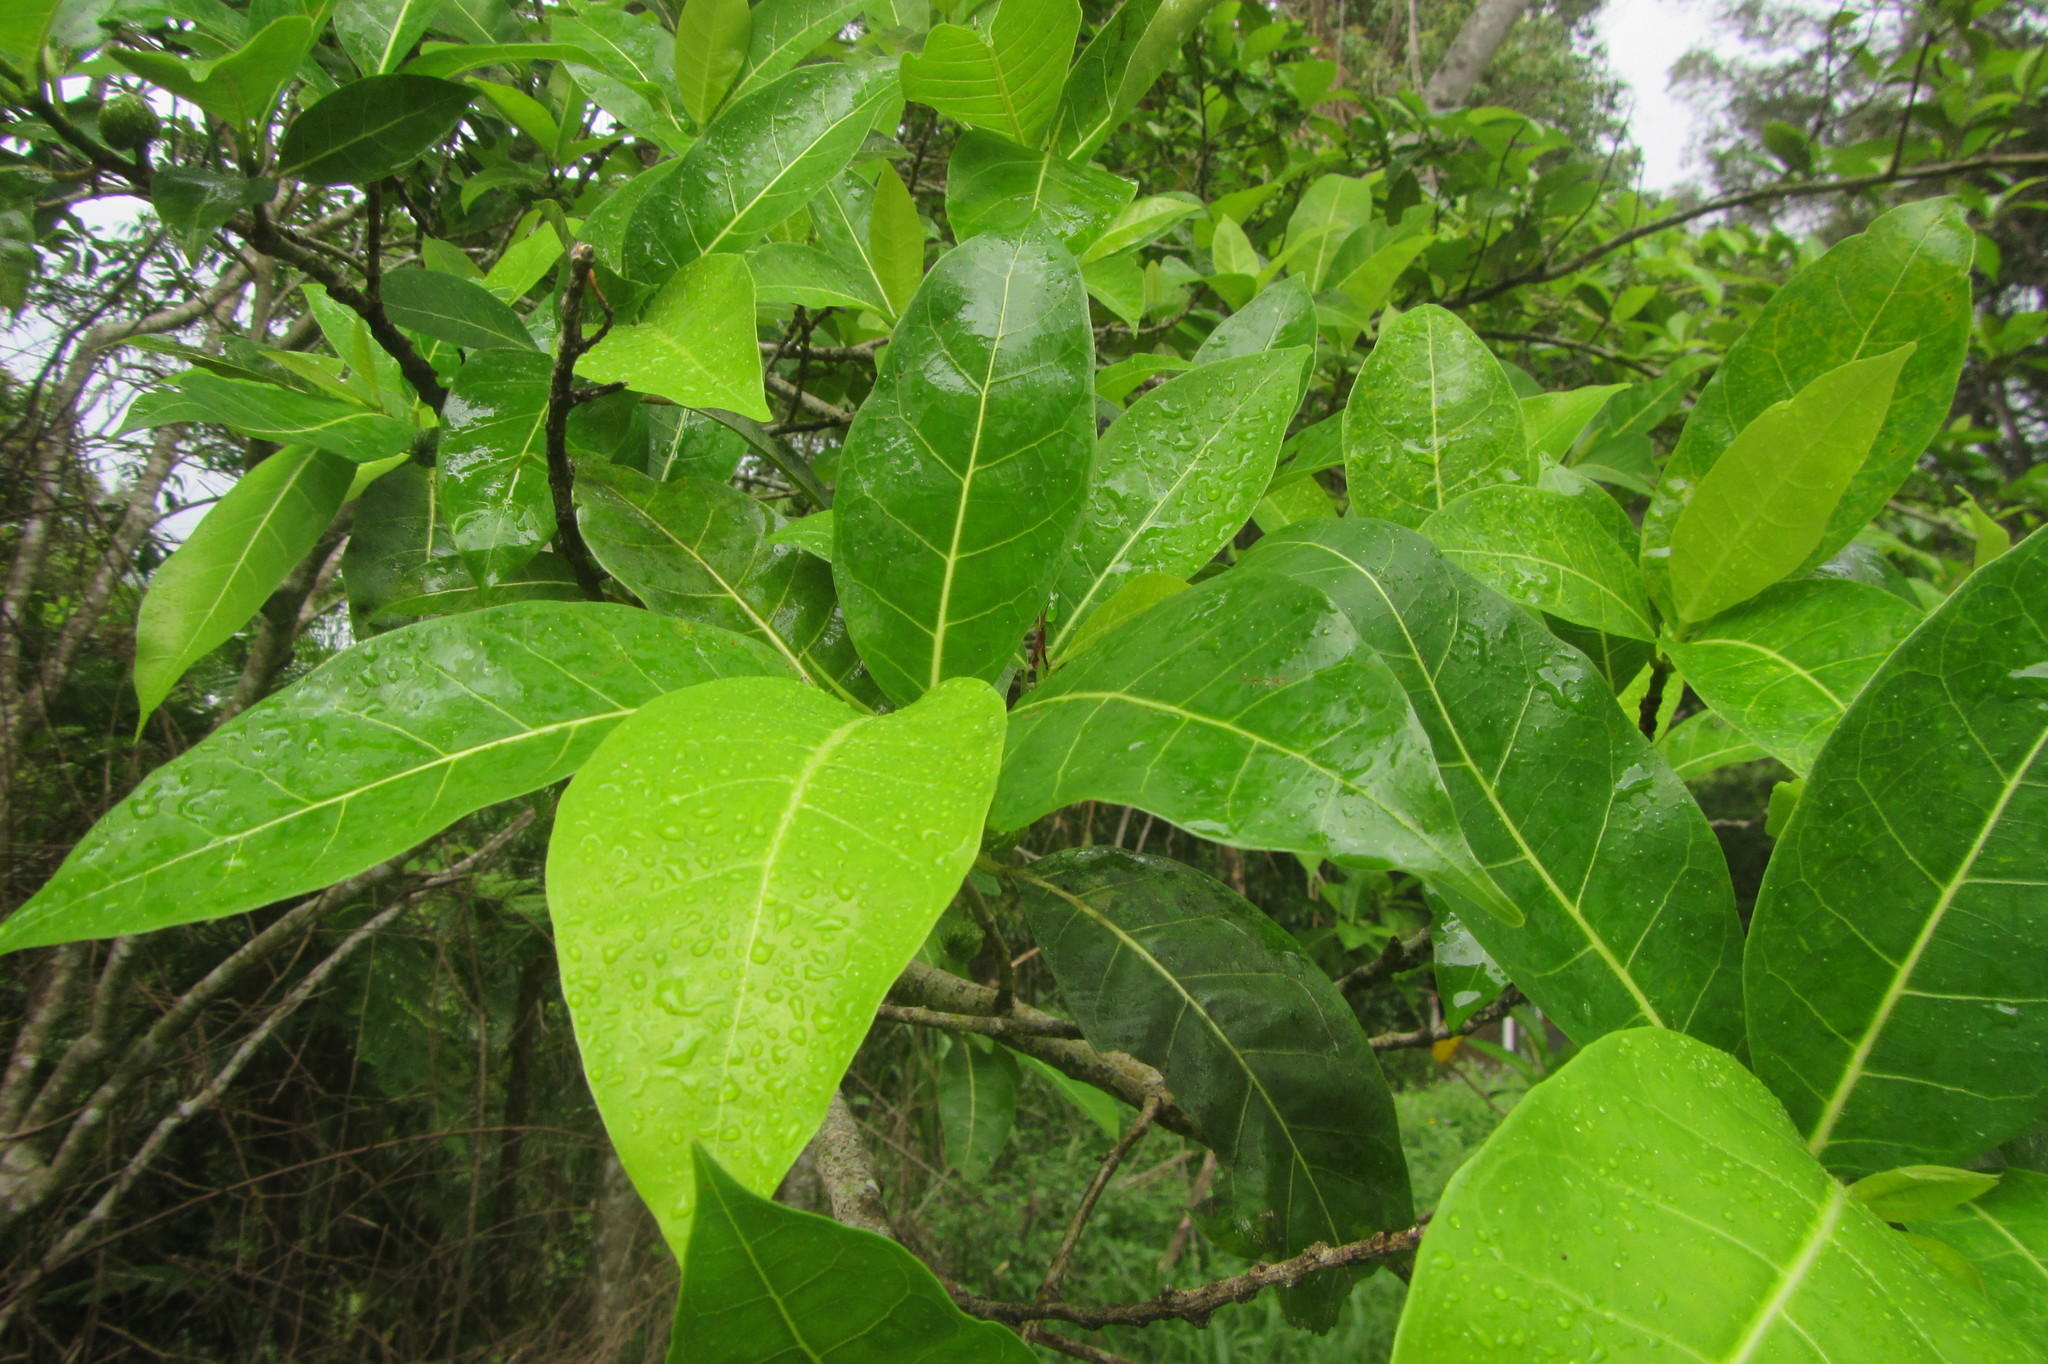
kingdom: Plantae
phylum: Tracheophyta
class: Magnoliopsida
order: Rosales
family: Moraceae
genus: Ficus
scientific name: Ficus septica
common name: Septic fig
